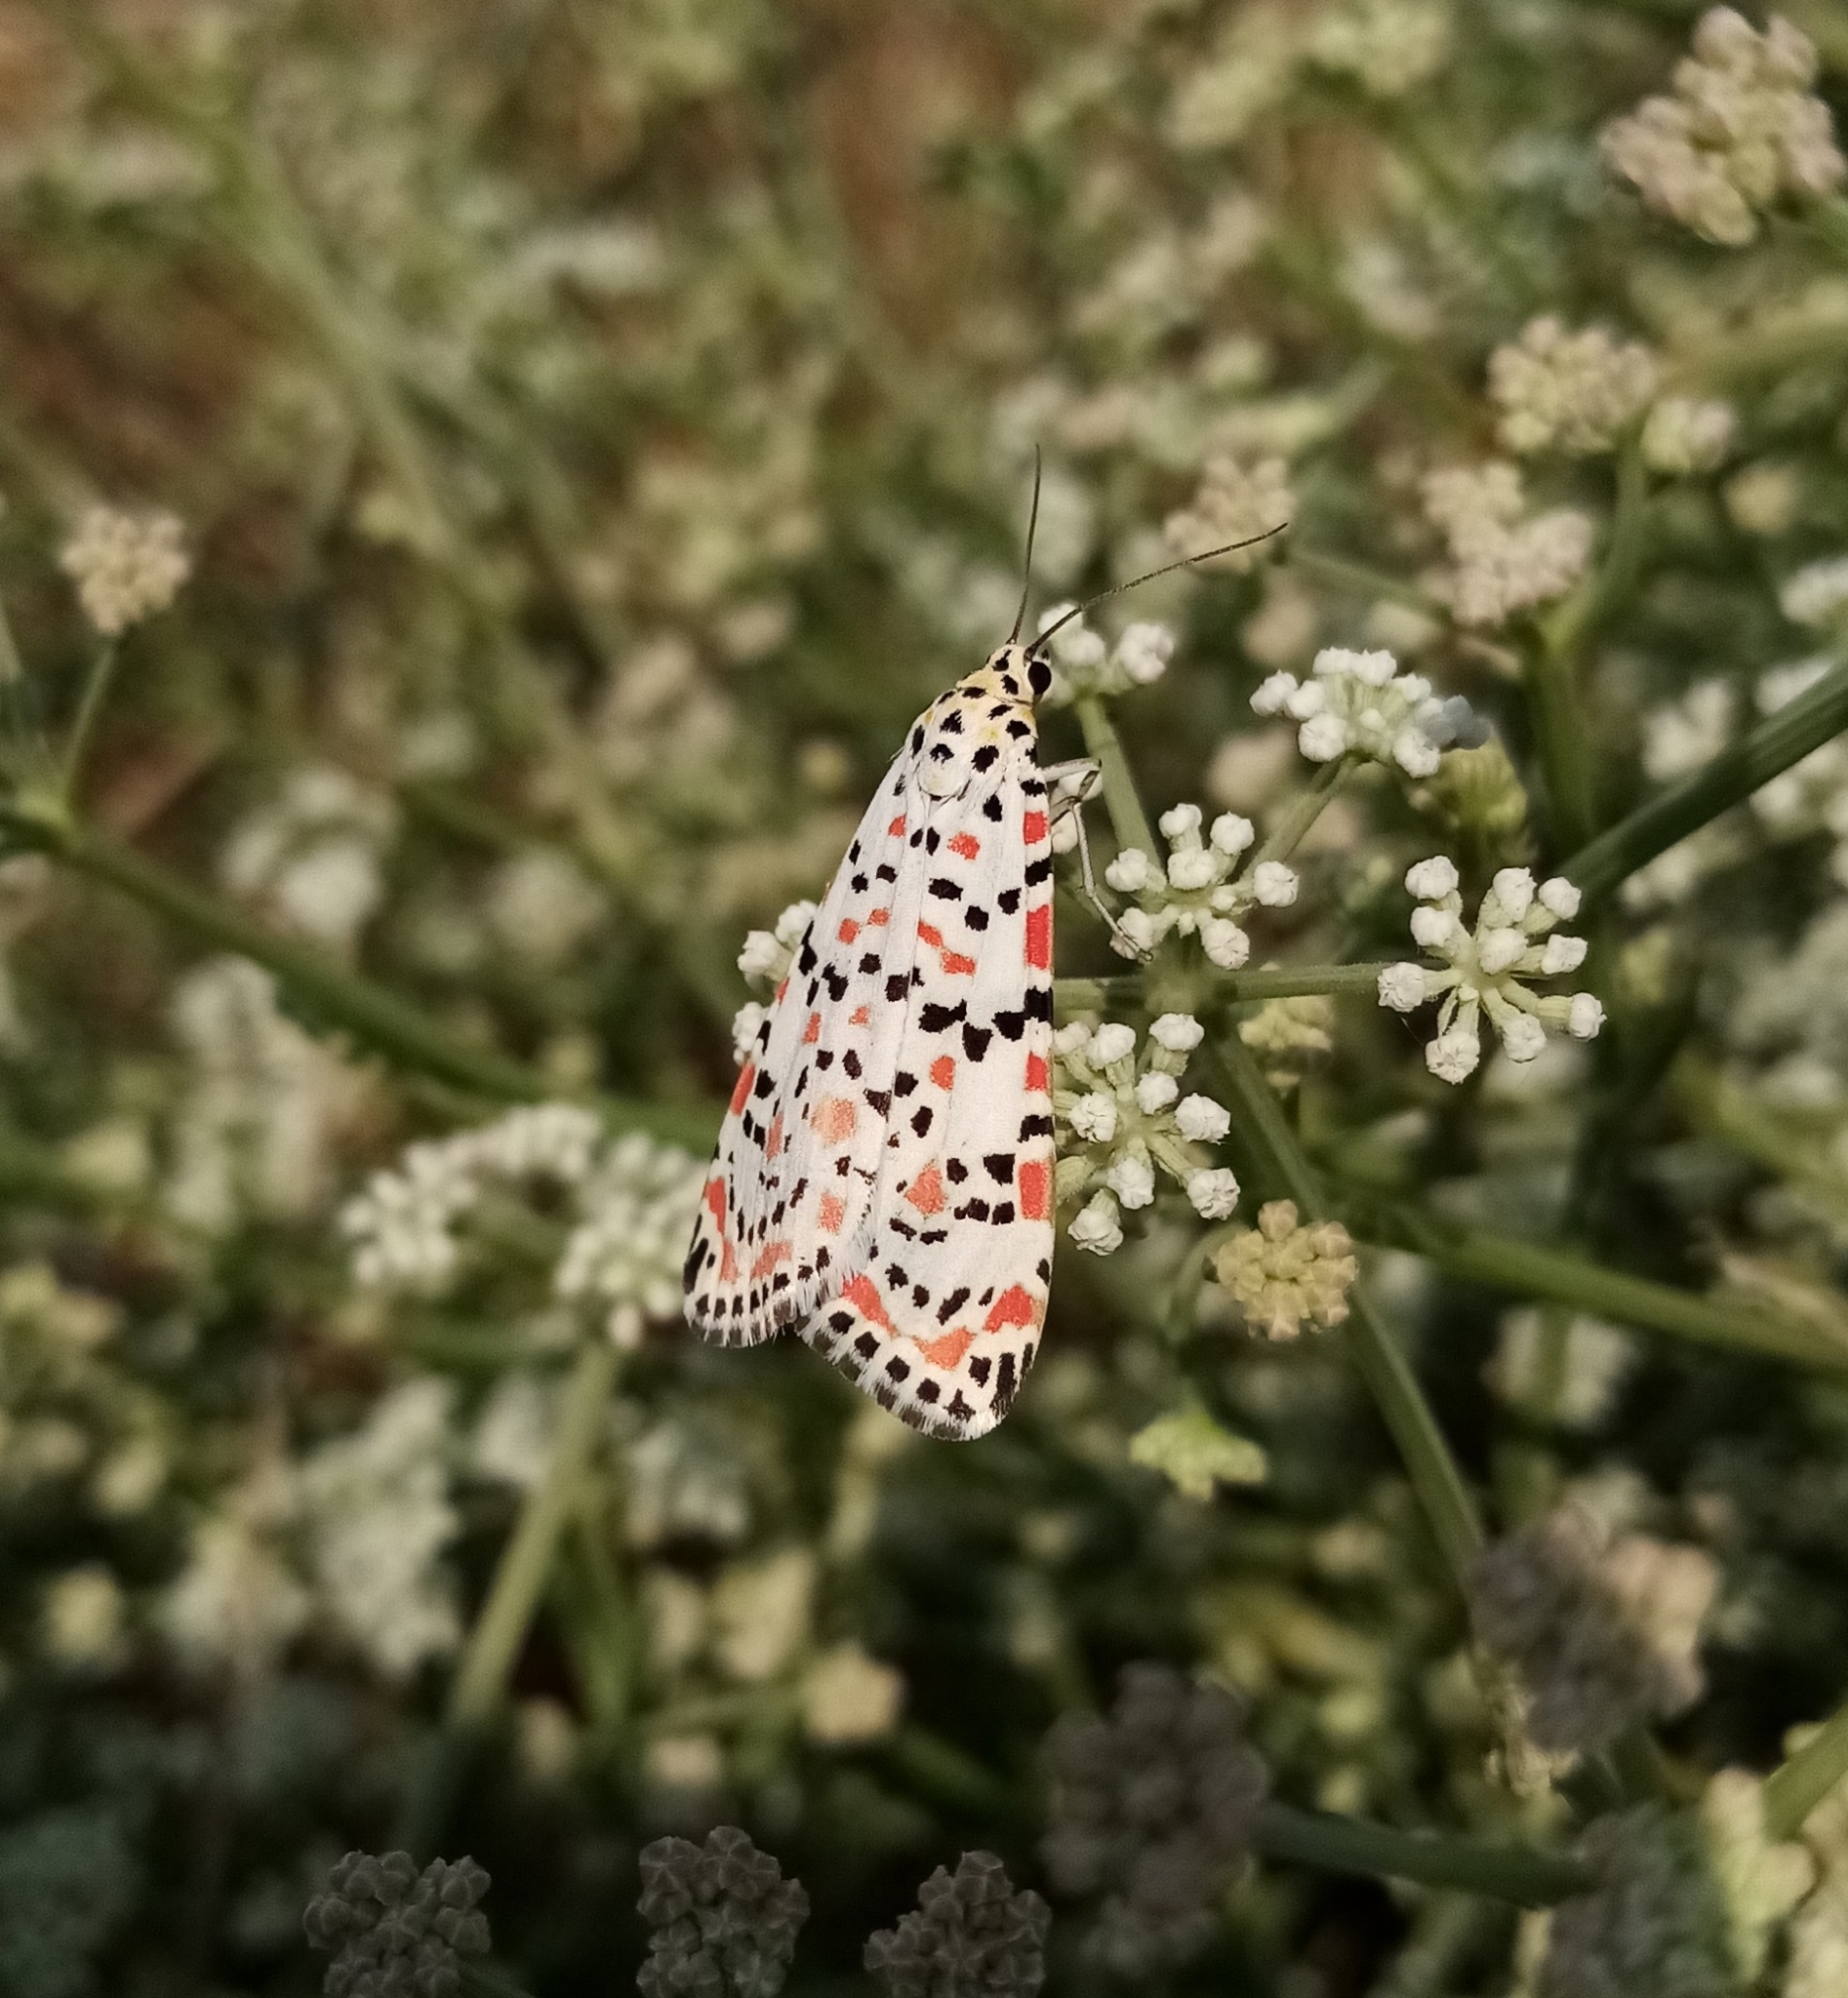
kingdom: Animalia
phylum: Arthropoda
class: Insecta
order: Lepidoptera
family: Erebidae
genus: Utetheisa
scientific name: Utetheisa pulchella
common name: Crimson speckled
